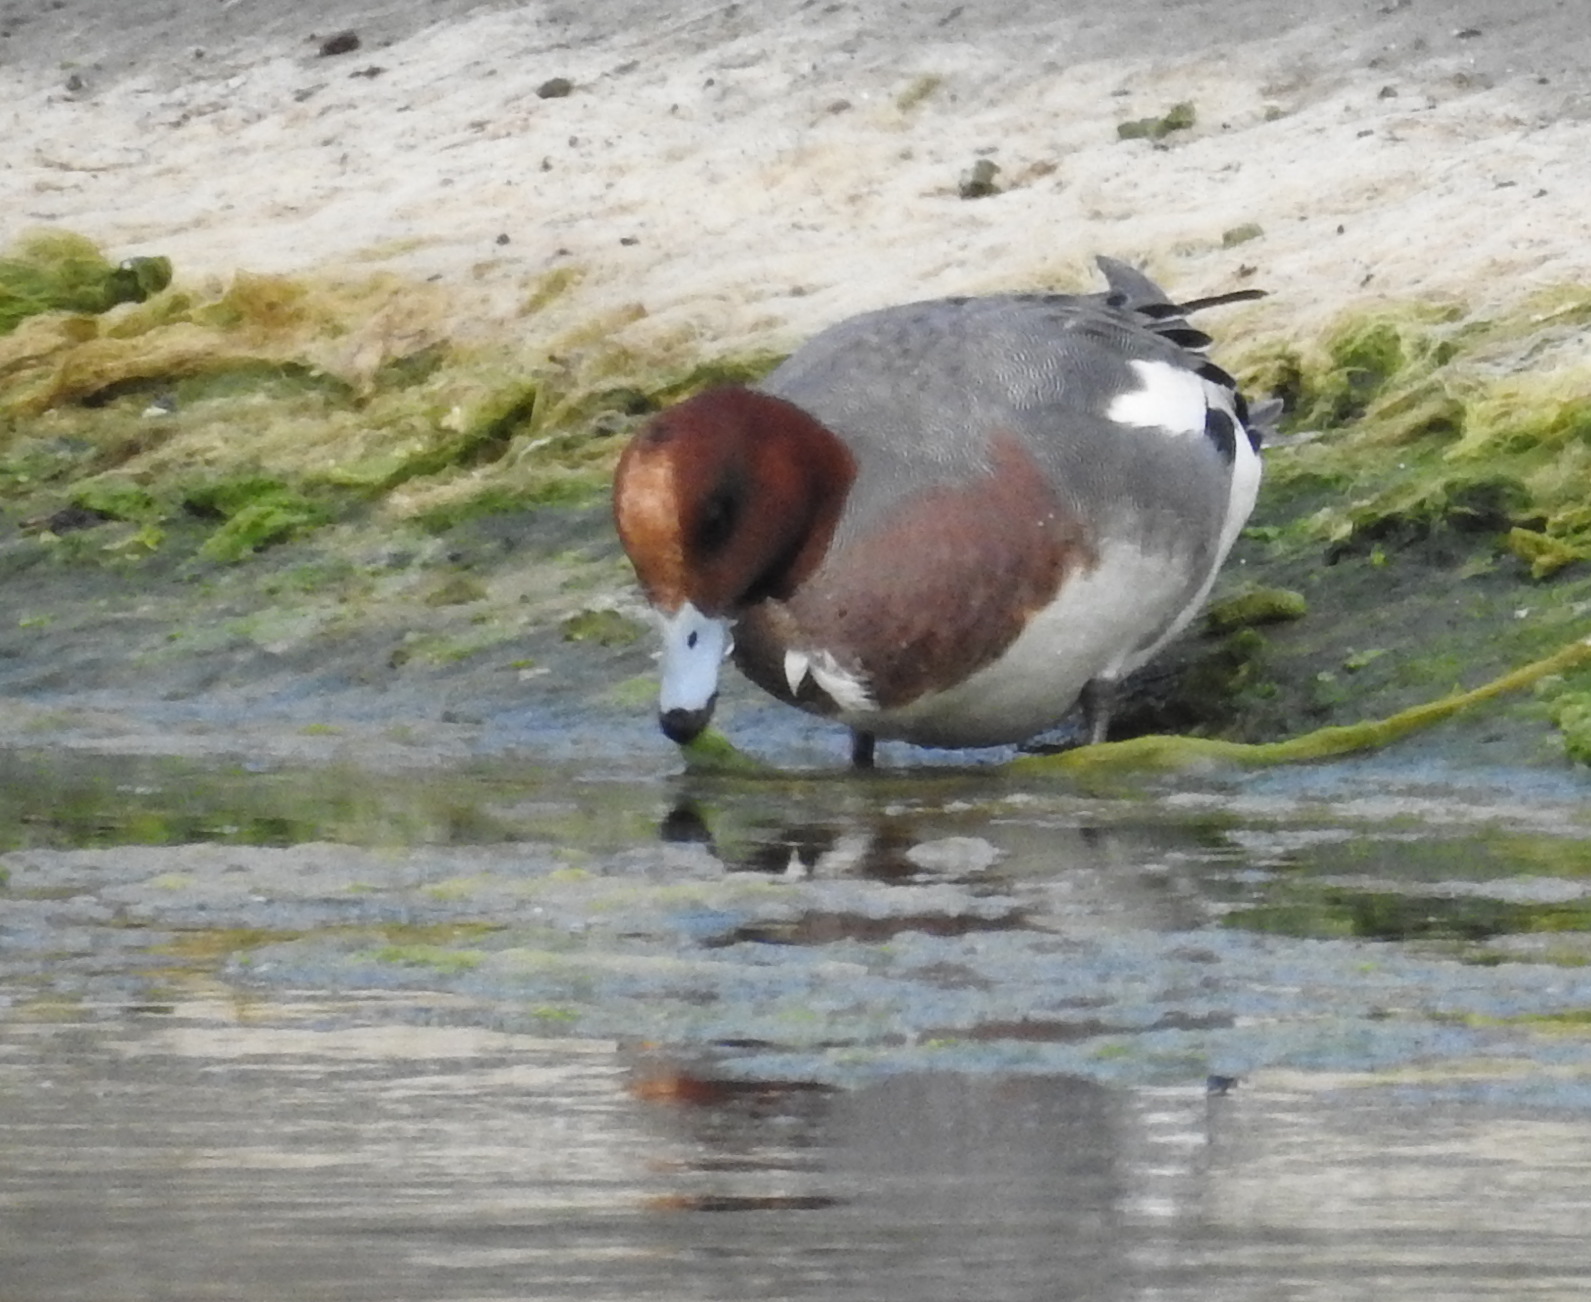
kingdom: Animalia
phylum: Chordata
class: Aves
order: Anseriformes
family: Anatidae
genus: Mareca
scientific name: Mareca penelope
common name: Eurasian wigeon
